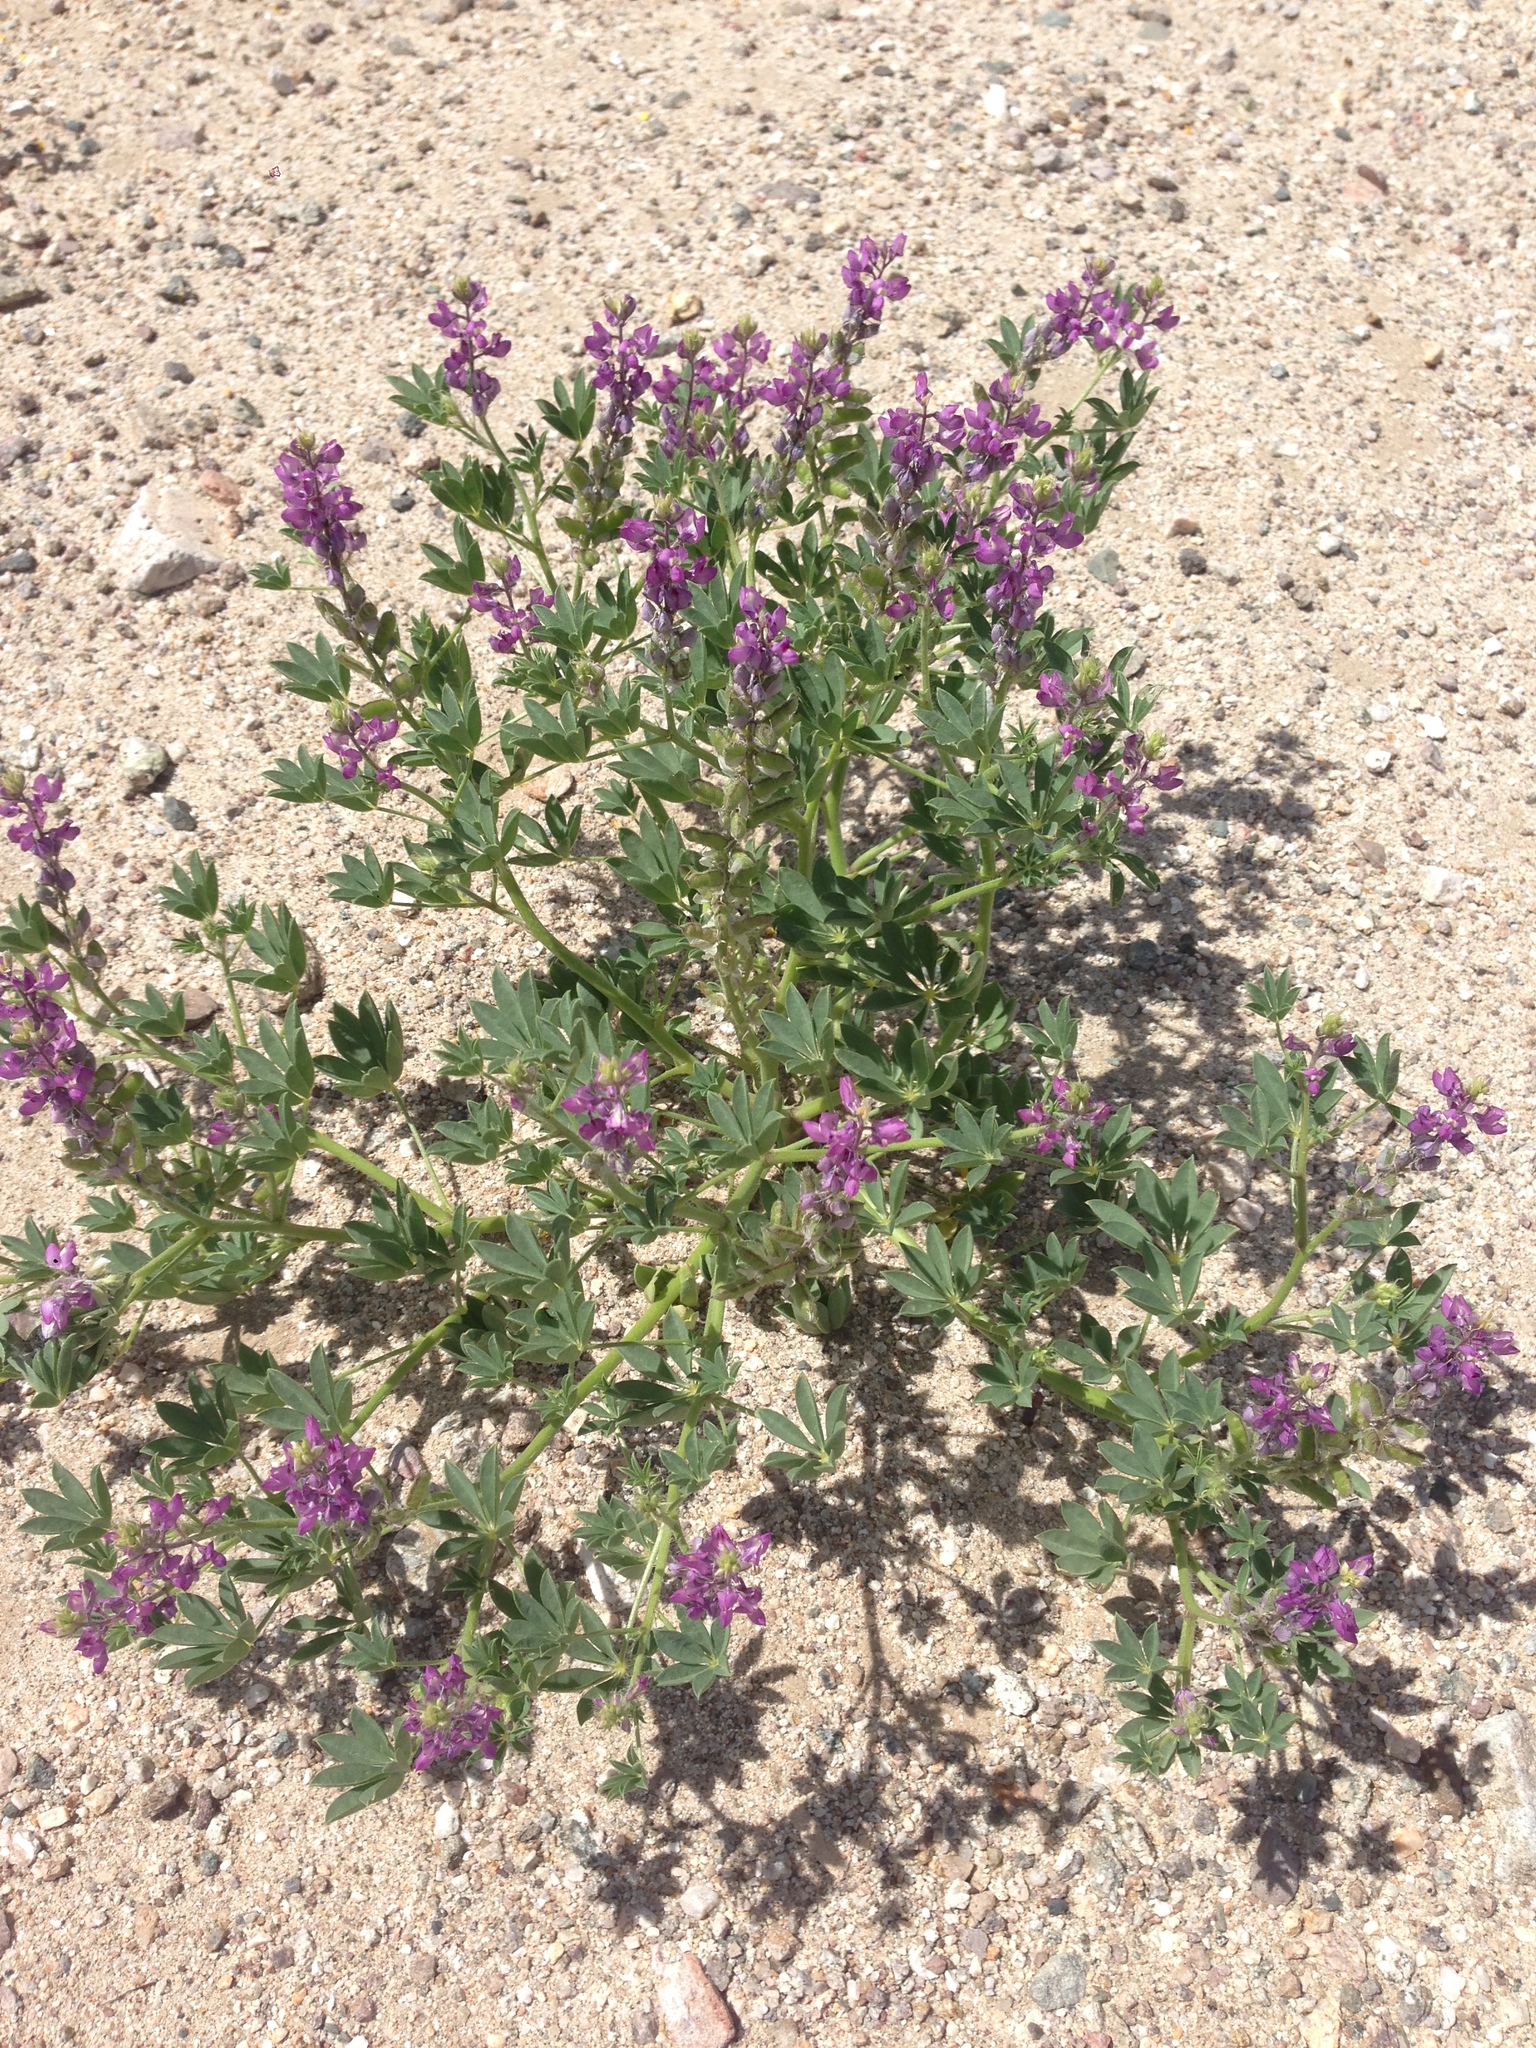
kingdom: Plantae
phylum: Tracheophyta
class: Magnoliopsida
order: Fabales
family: Fabaceae
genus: Lupinus
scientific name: Lupinus arizonicus
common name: Arizona lupine
